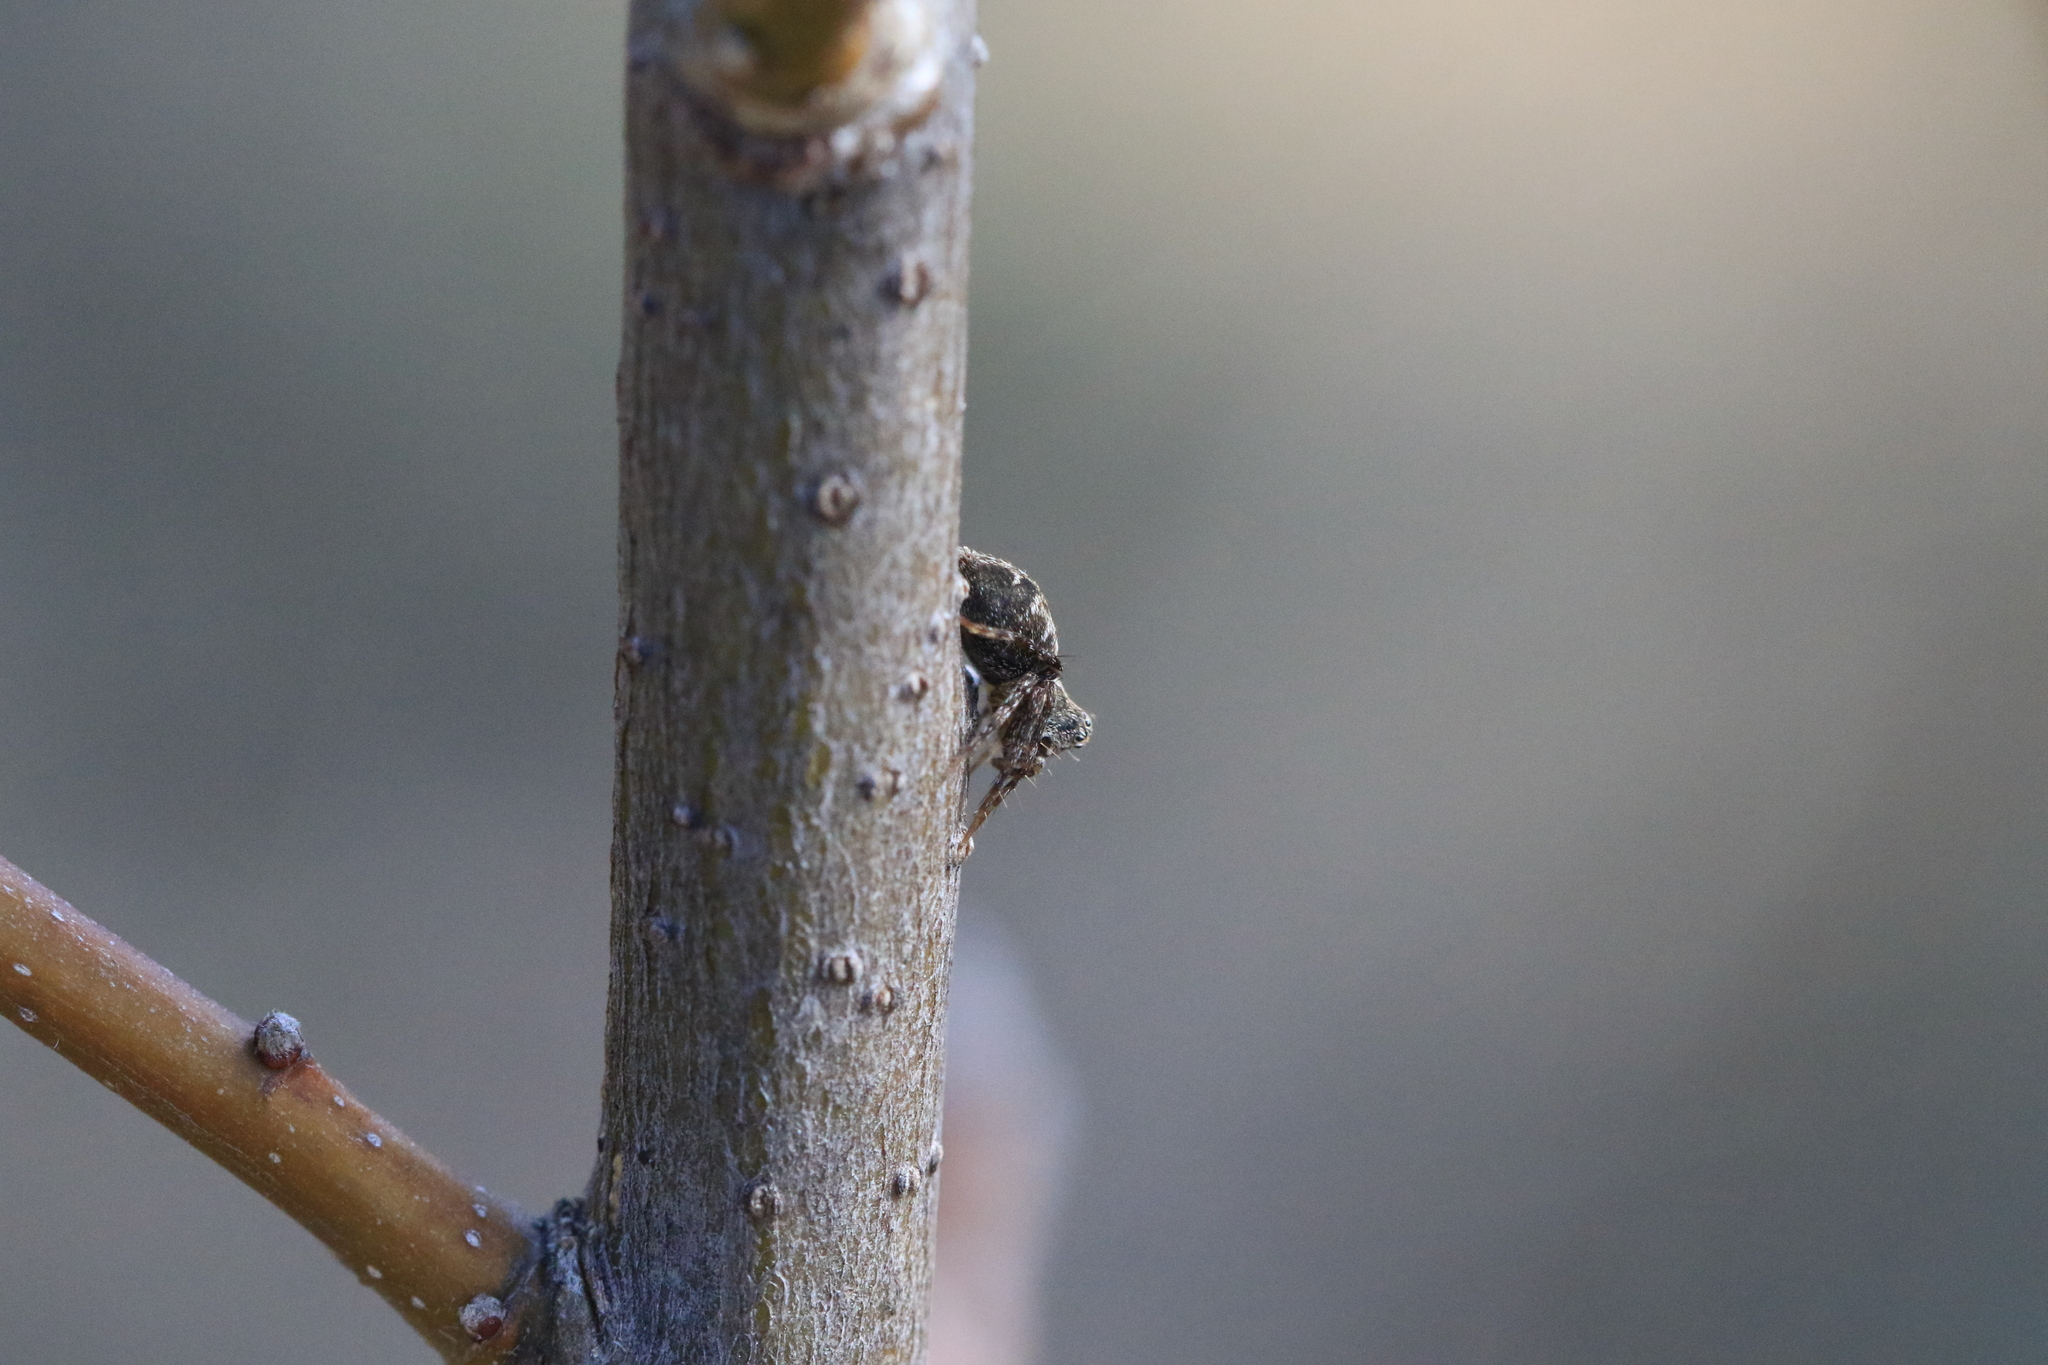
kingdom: Animalia
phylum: Arthropoda
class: Arachnida
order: Araneae
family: Oxyopidae
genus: Oxyopes
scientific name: Oxyopes scalaris
